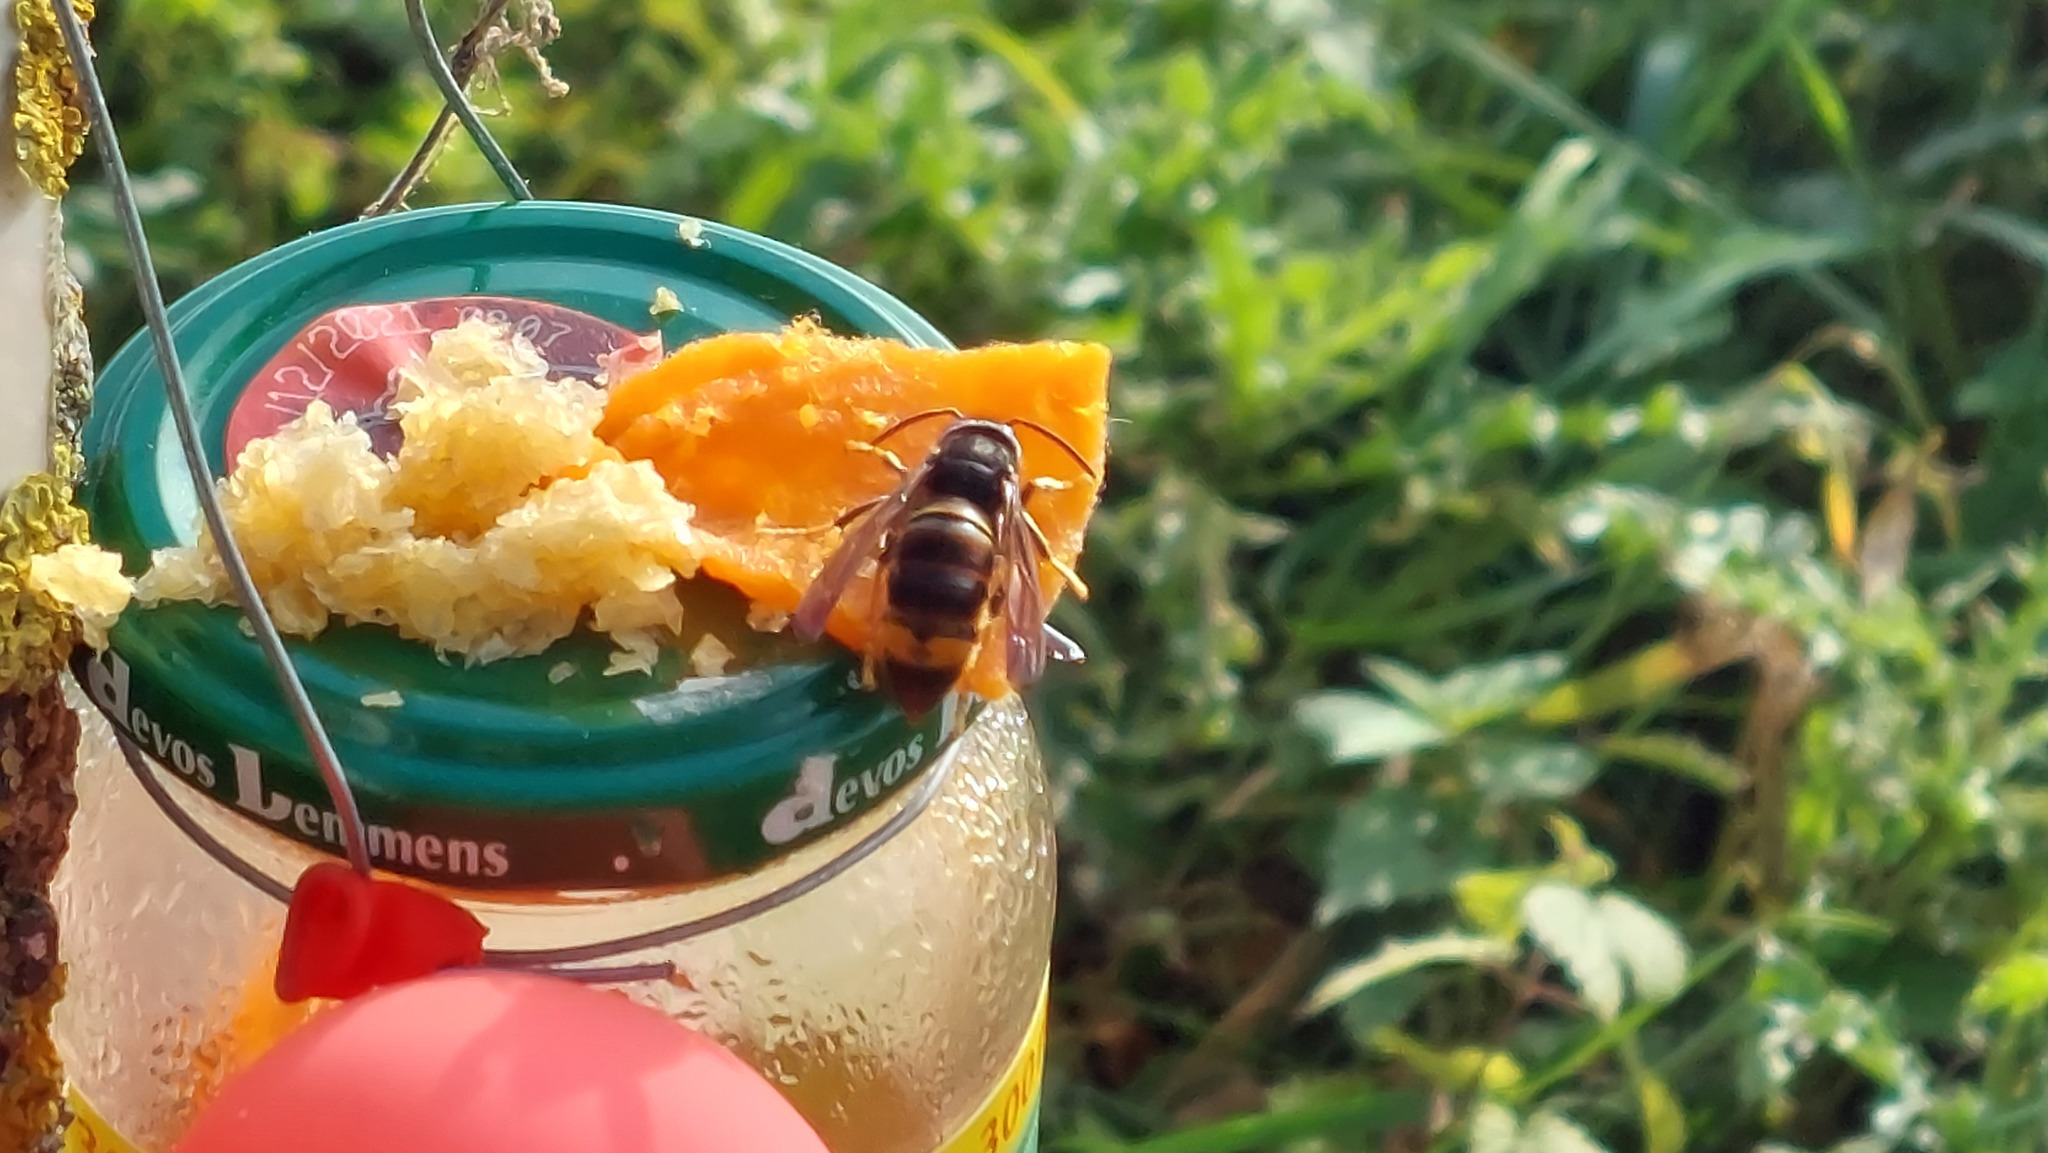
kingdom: Animalia
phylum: Arthropoda
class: Insecta
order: Hymenoptera
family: Vespidae
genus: Vespa
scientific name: Vespa velutina
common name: Asian hornet
